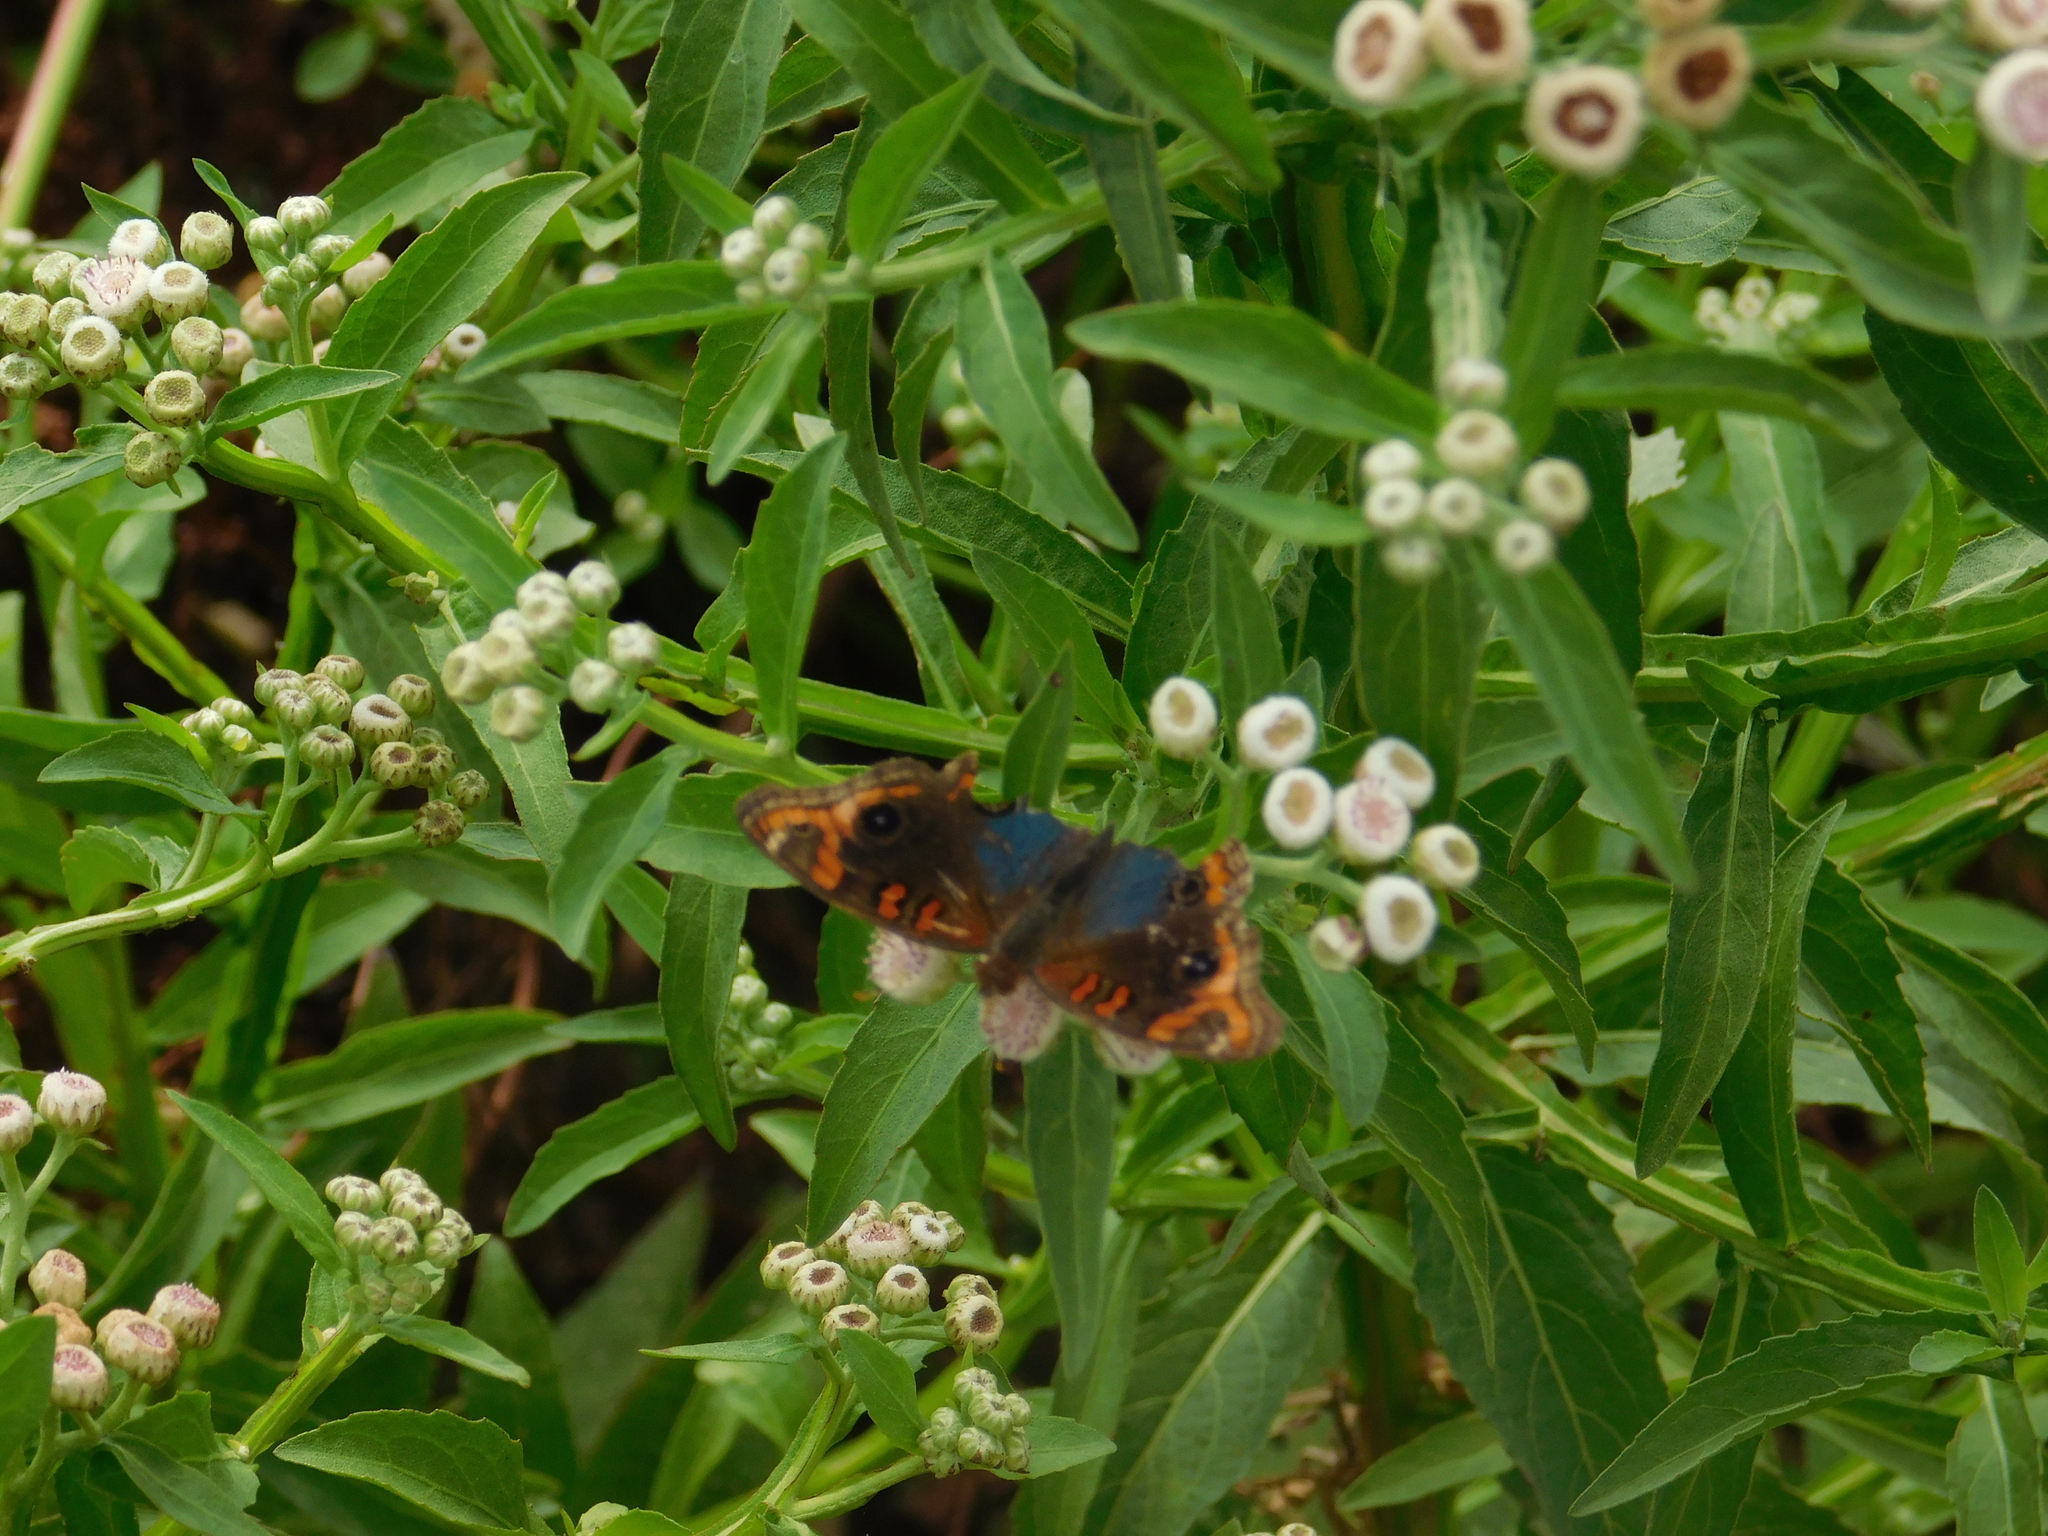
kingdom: Animalia
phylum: Arthropoda
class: Insecta
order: Lepidoptera
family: Nymphalidae
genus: Junonia
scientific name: Junonia lavinia
